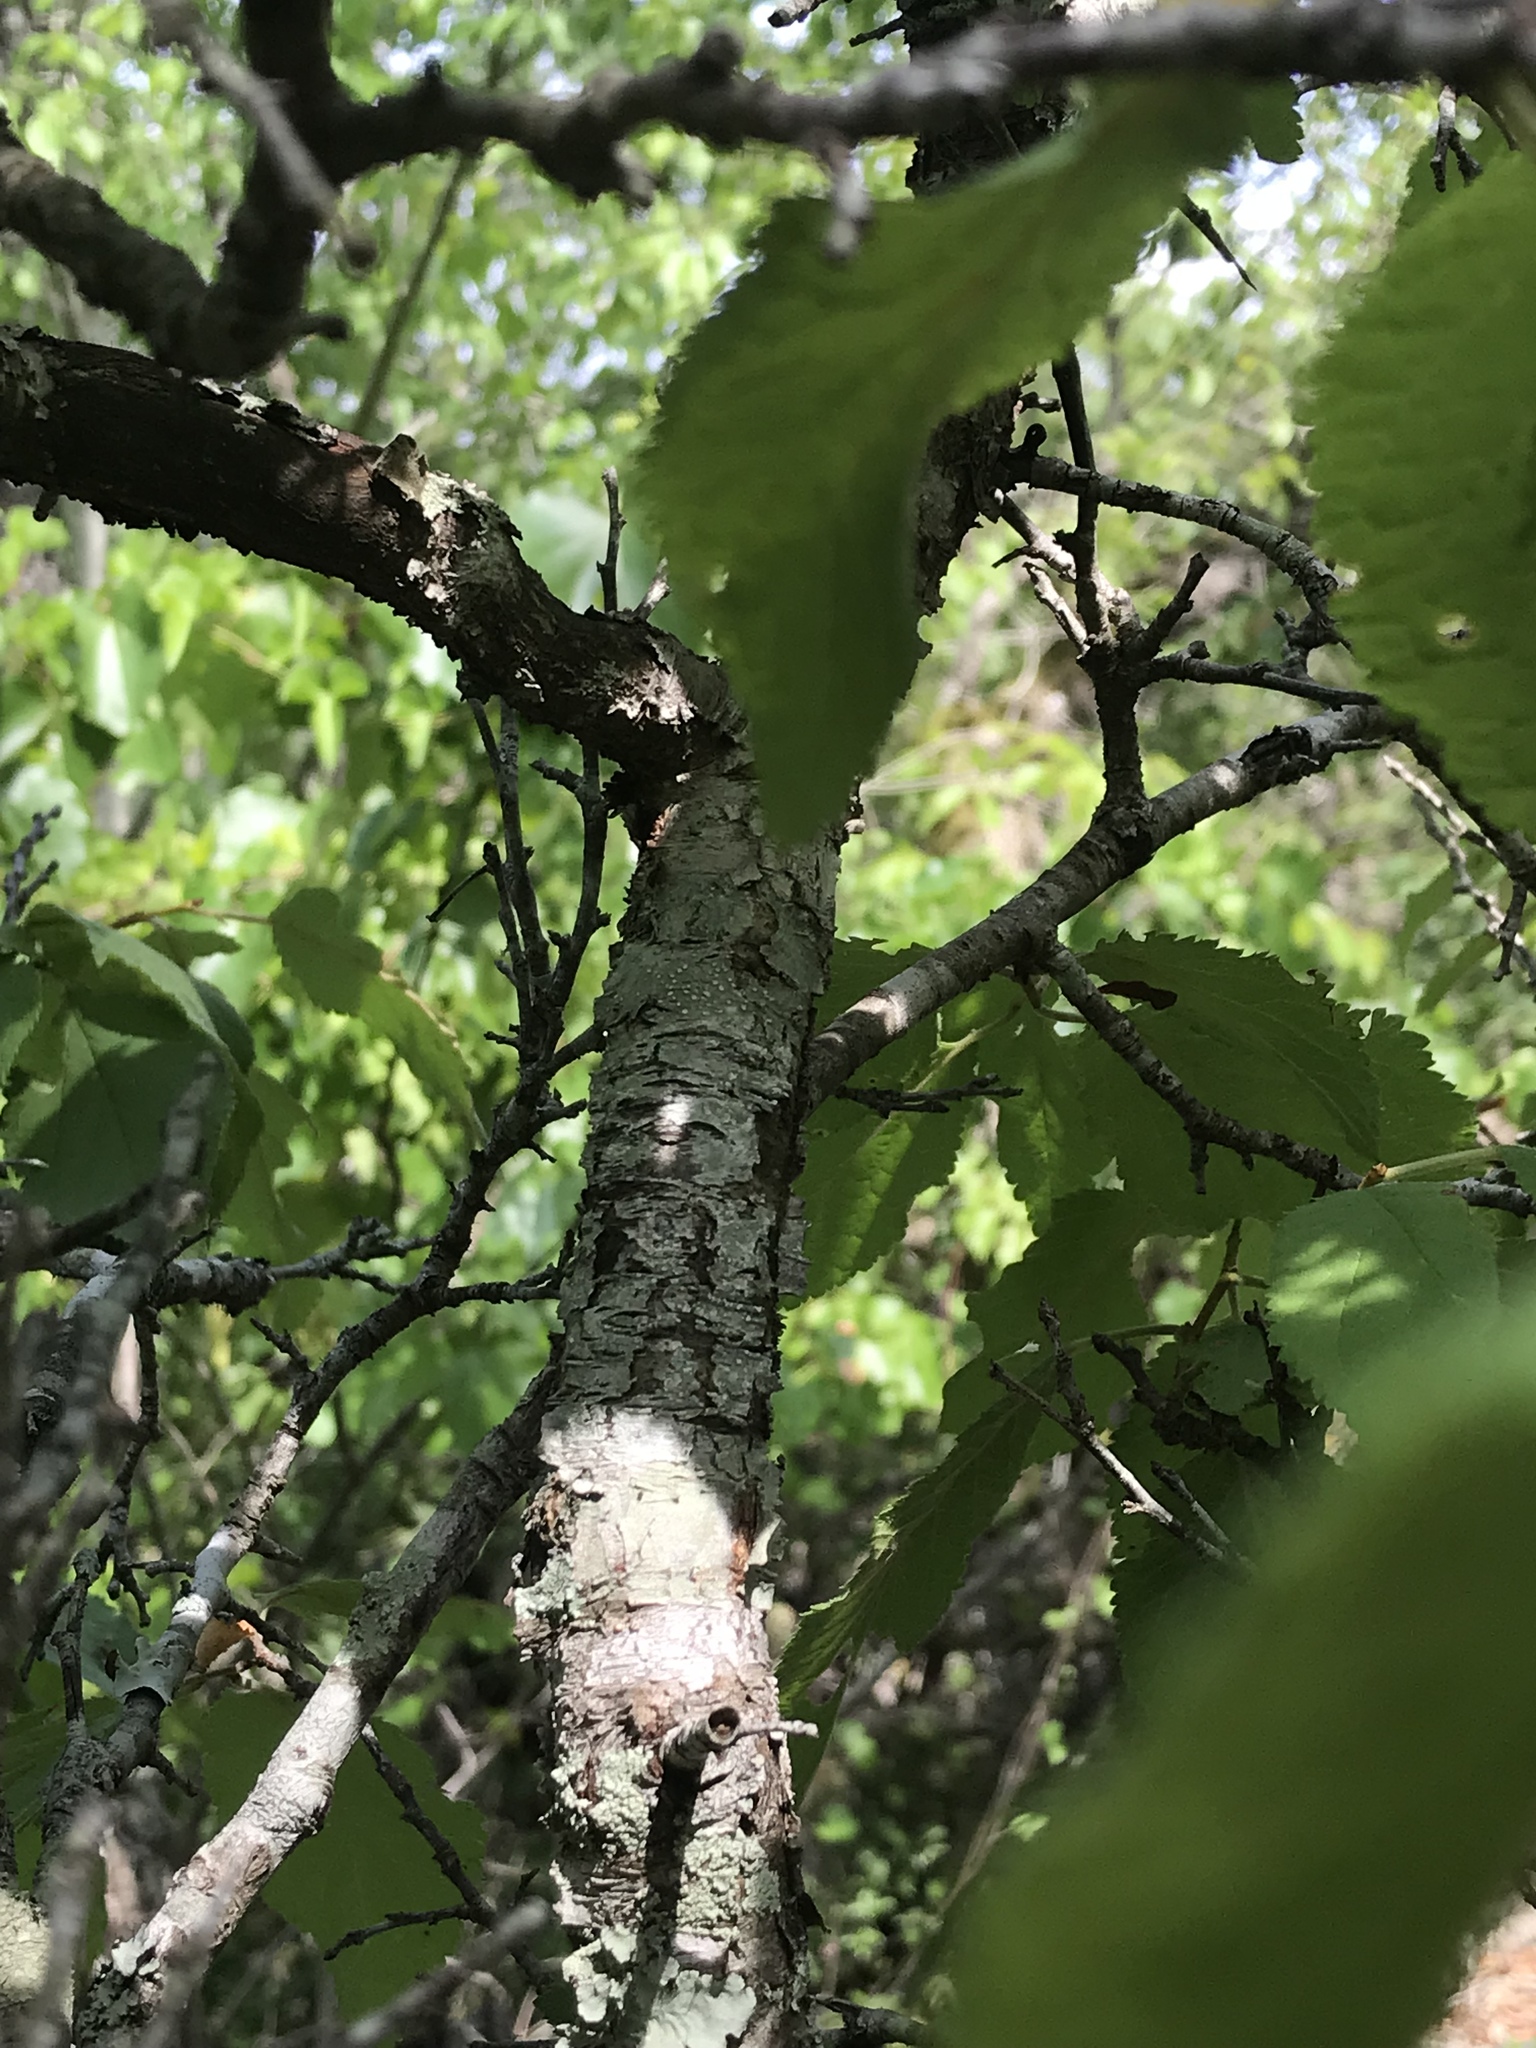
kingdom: Plantae
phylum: Tracheophyta
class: Magnoliopsida
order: Rosales
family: Rosaceae
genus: Prunus
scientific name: Prunus mexicana
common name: Mexican plum
